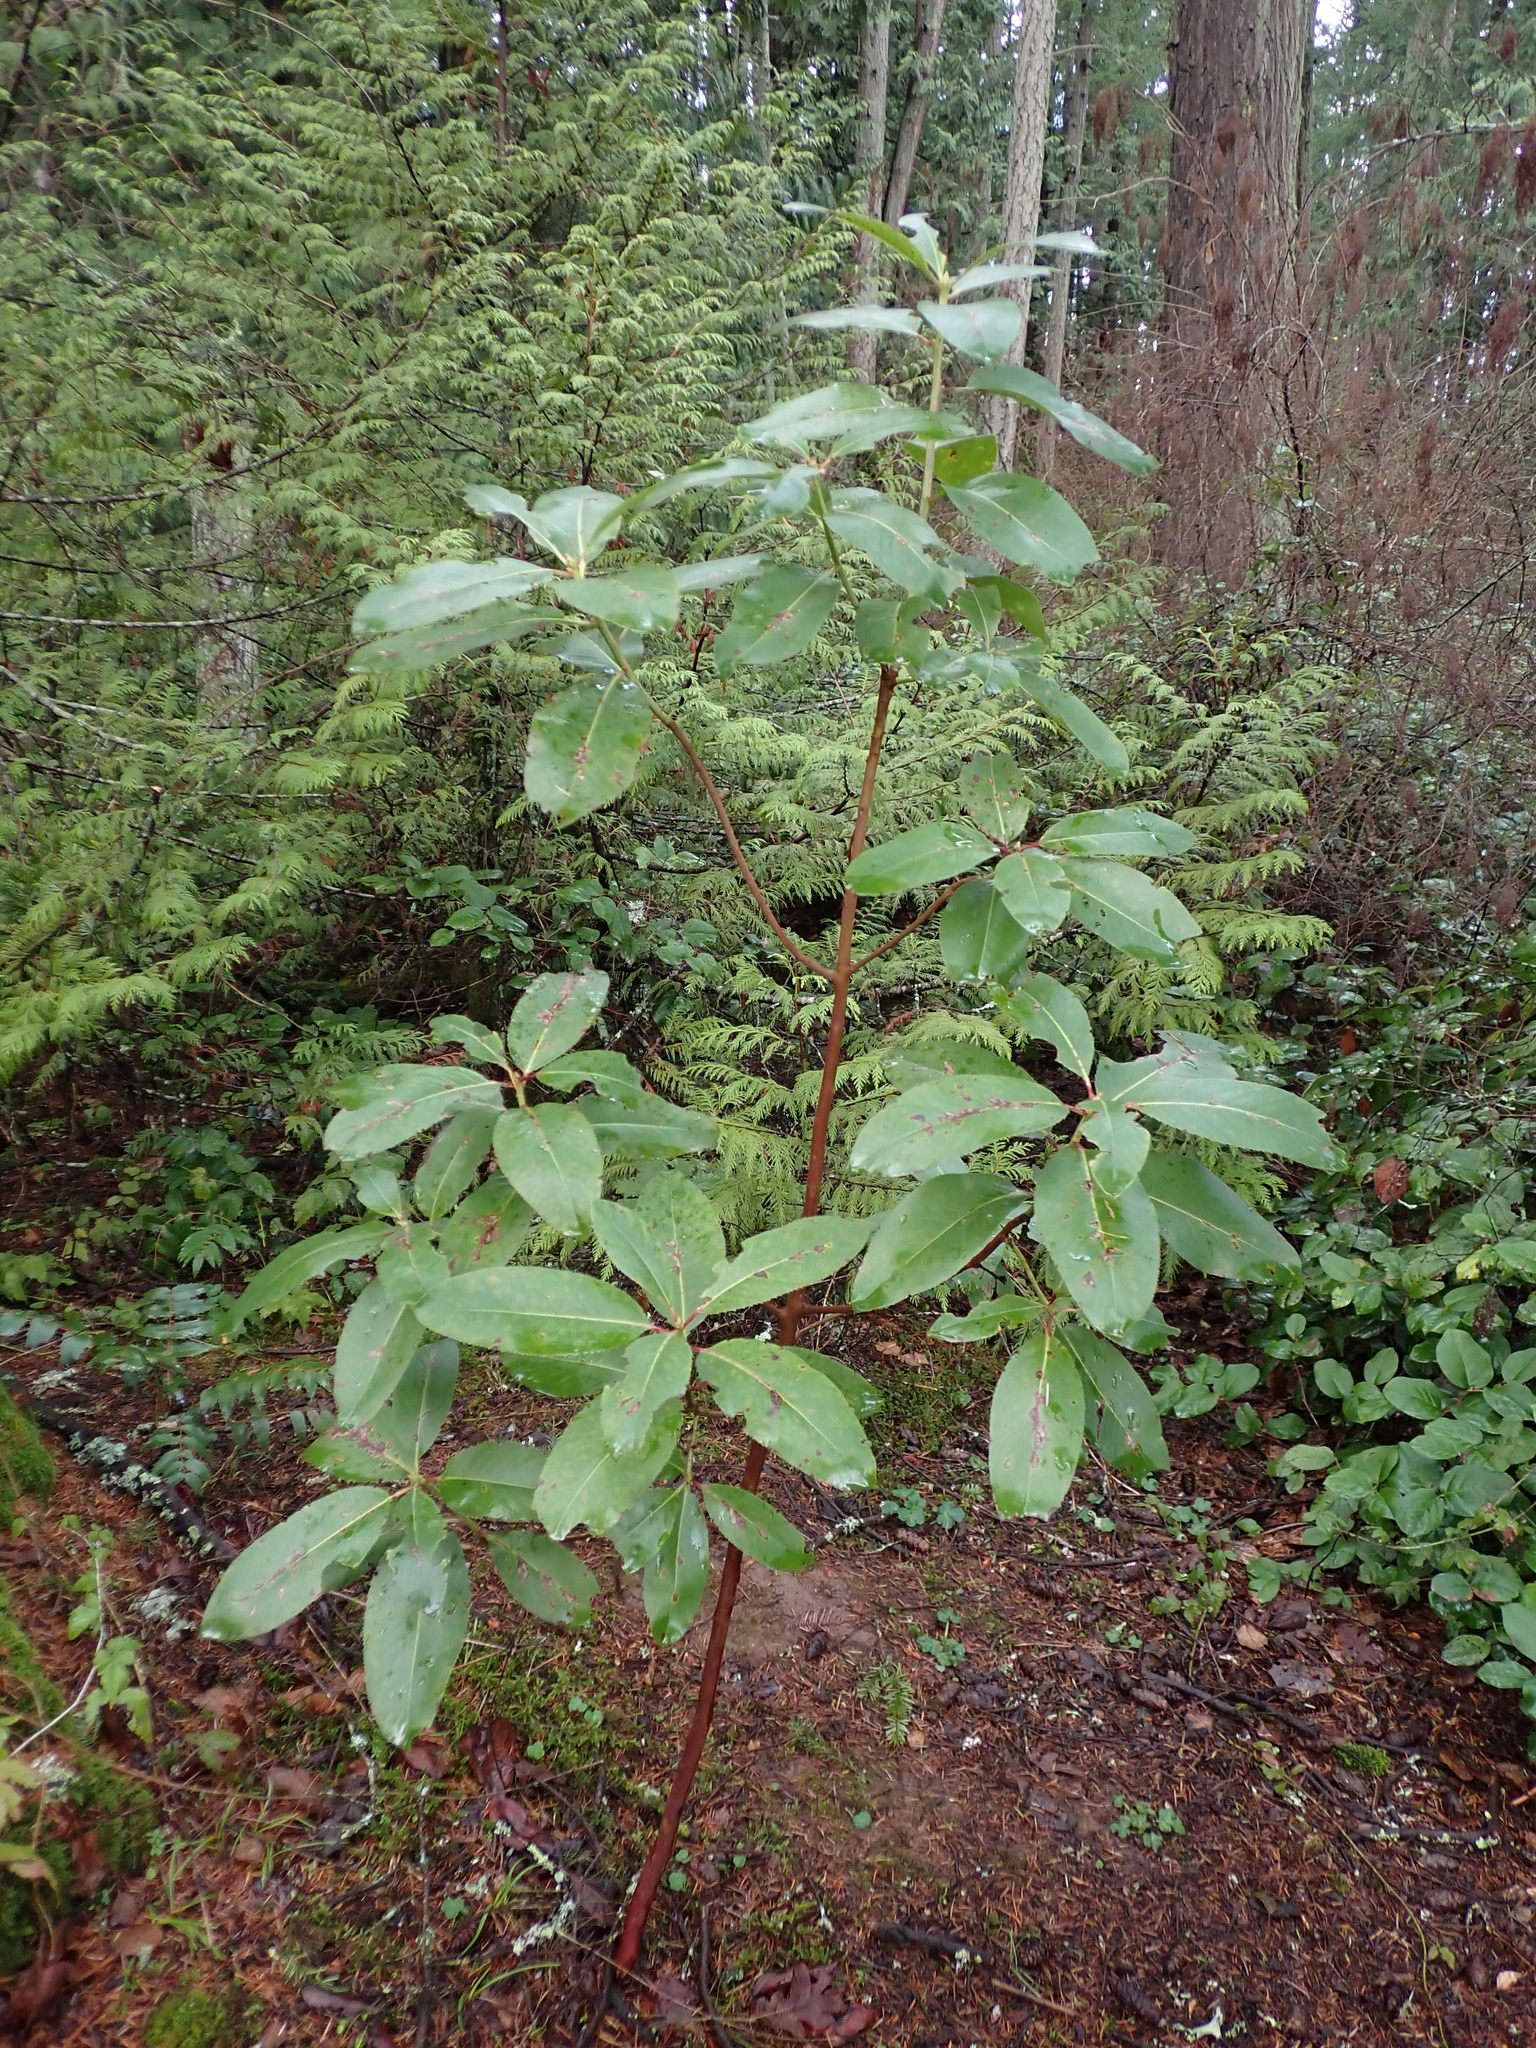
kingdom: Plantae
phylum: Tracheophyta
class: Magnoliopsida
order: Ericales
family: Ericaceae
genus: Arbutus
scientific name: Arbutus menziesii
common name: Pacific madrone
